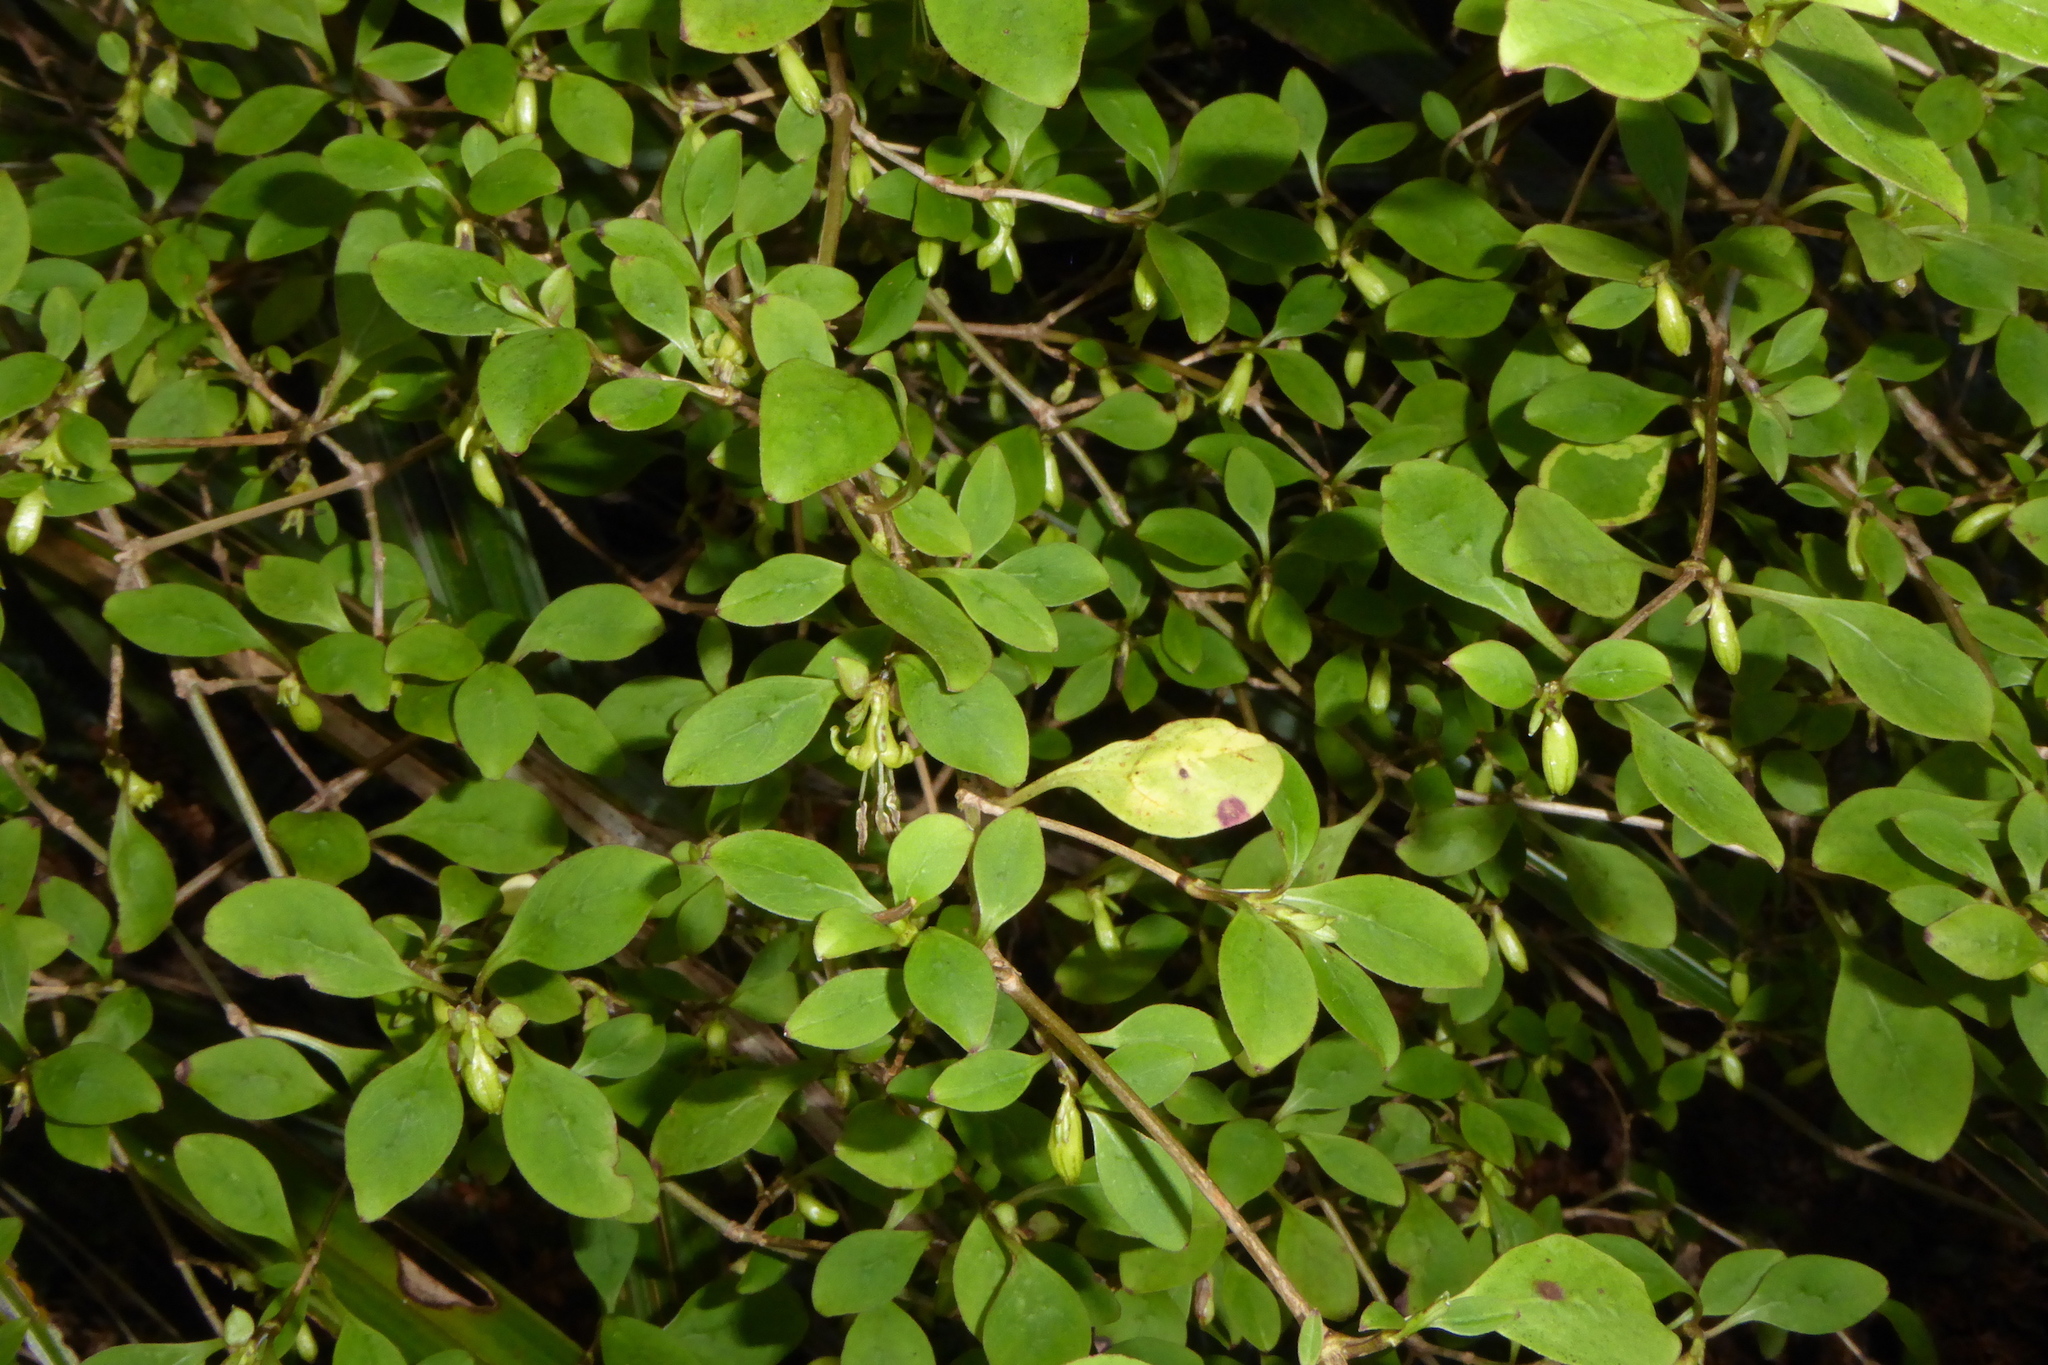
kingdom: Plantae
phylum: Tracheophyta
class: Magnoliopsida
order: Gentianales
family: Rubiaceae
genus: Coprosma
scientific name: Coprosma foetidissima
